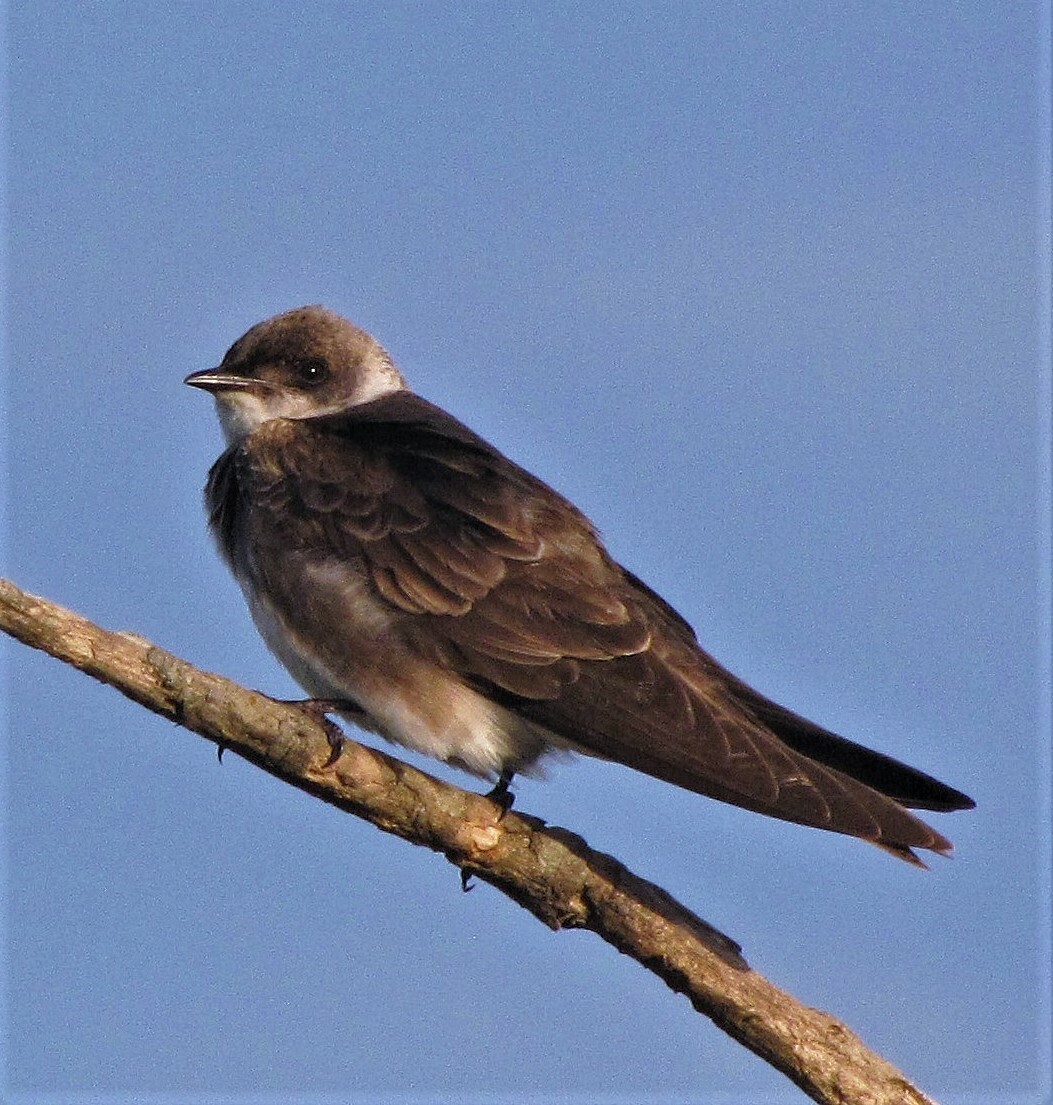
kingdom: Animalia
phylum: Chordata
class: Aves
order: Passeriformes
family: Hirundinidae
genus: Progne
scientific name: Progne tapera
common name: Brown-chested martin
